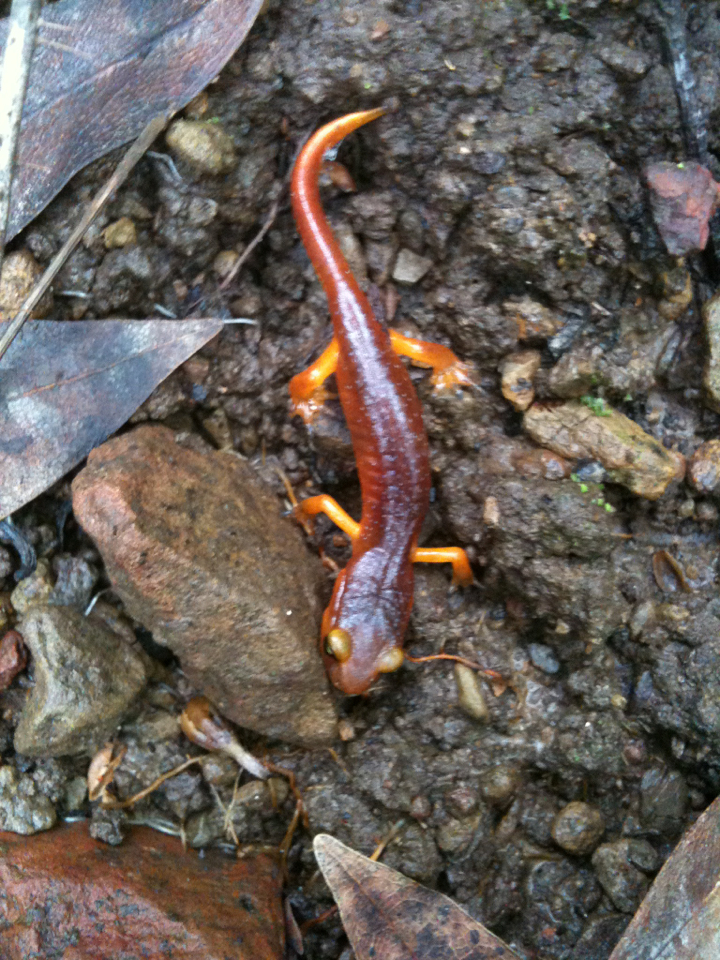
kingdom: Animalia
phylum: Chordata
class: Amphibia
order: Caudata
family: Plethodontidae
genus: Ensatina
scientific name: Ensatina eschscholtzii
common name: Ensatina
